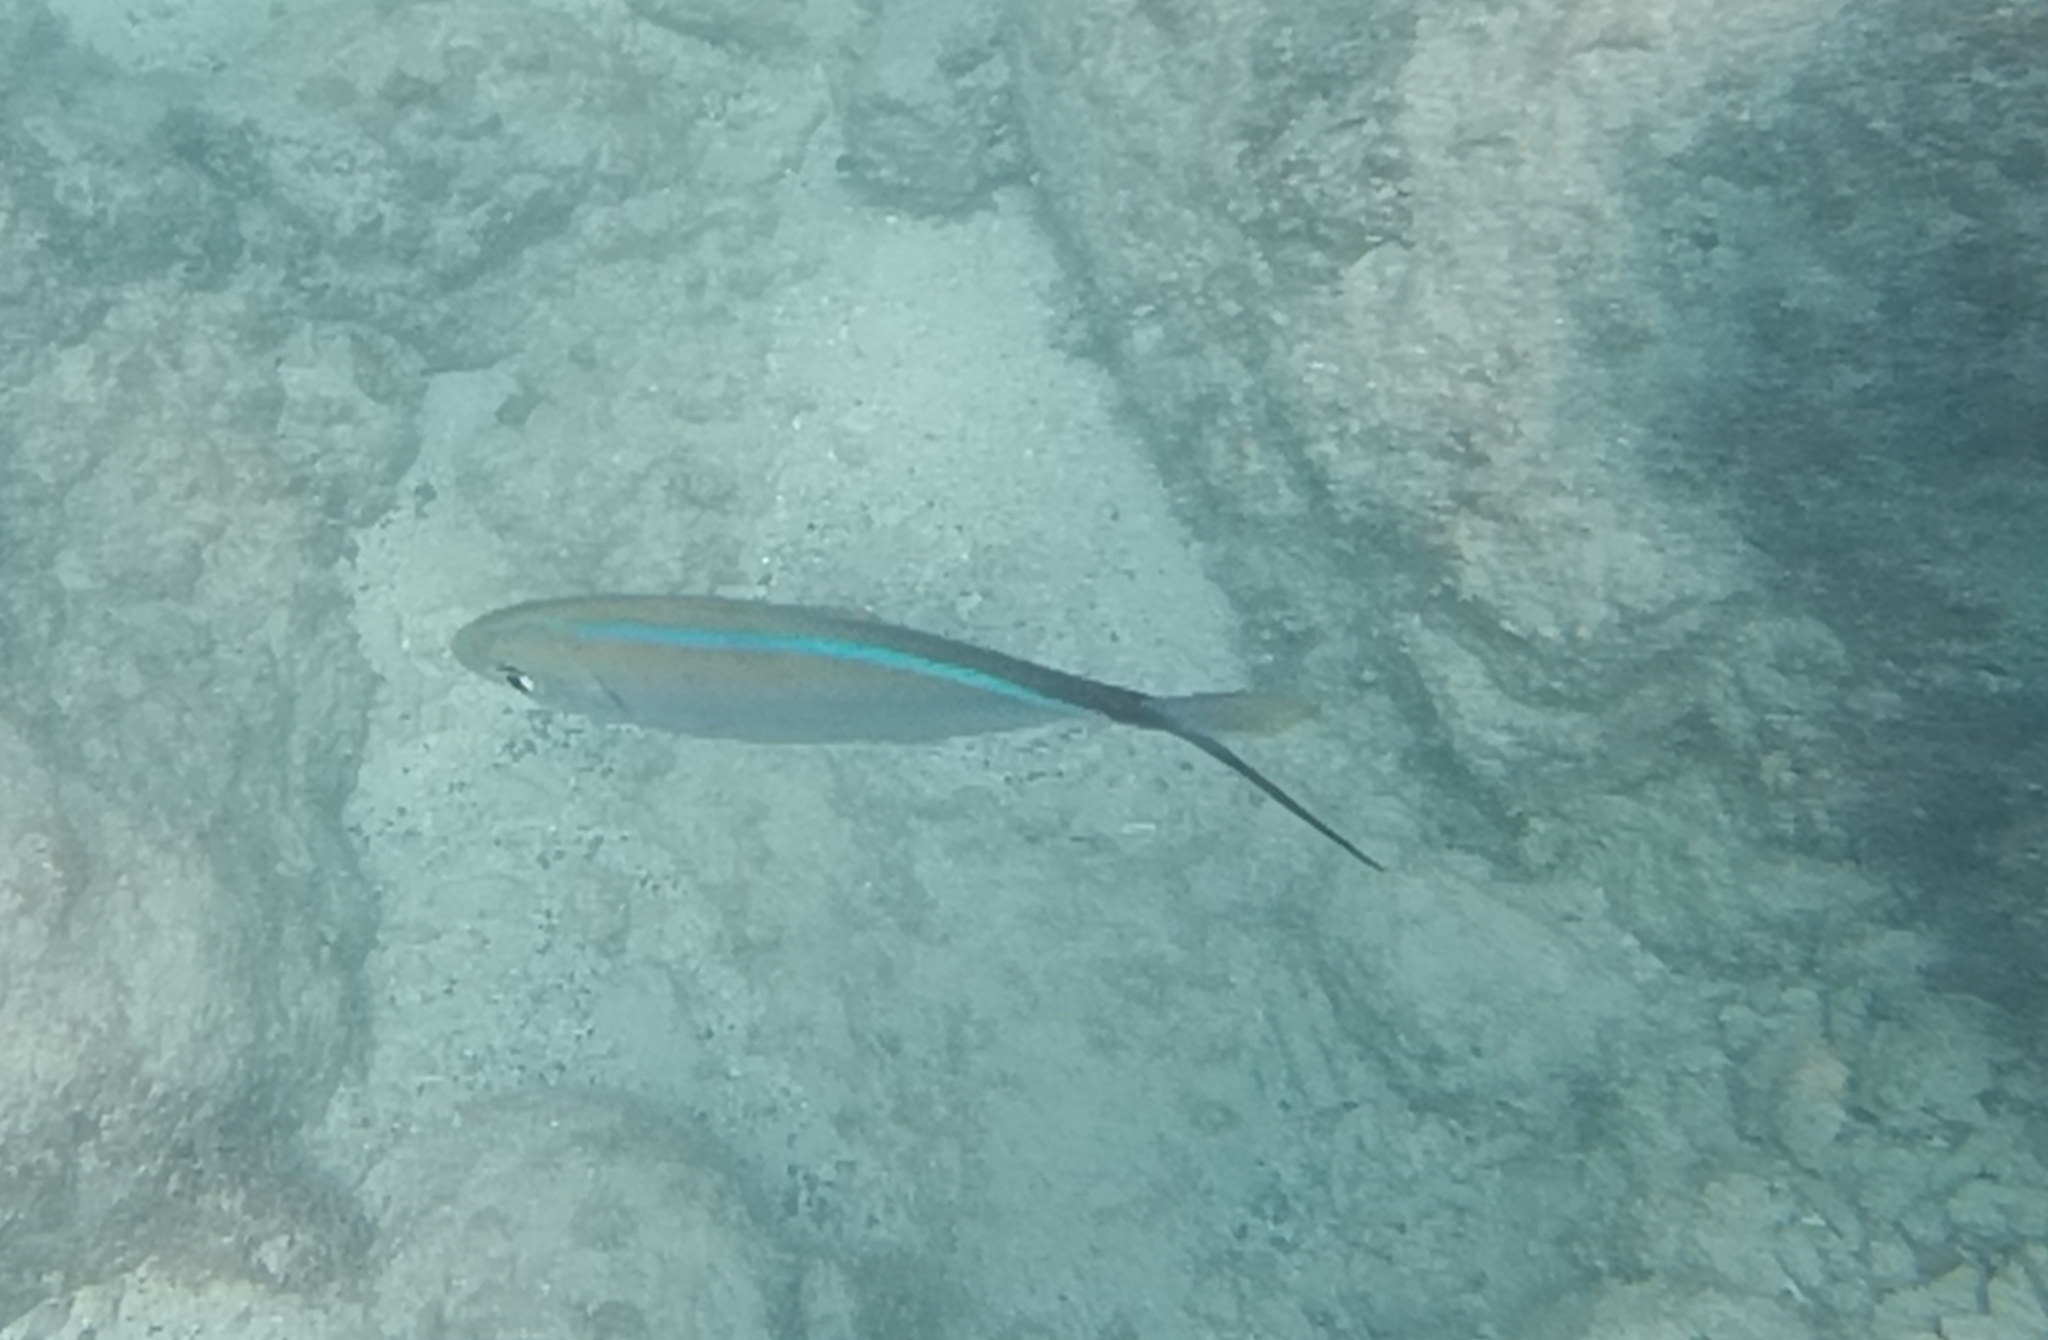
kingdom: Animalia
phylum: Chordata
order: Perciformes
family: Carangidae
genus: Caranx
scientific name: Caranx ruber
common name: Bar jack
